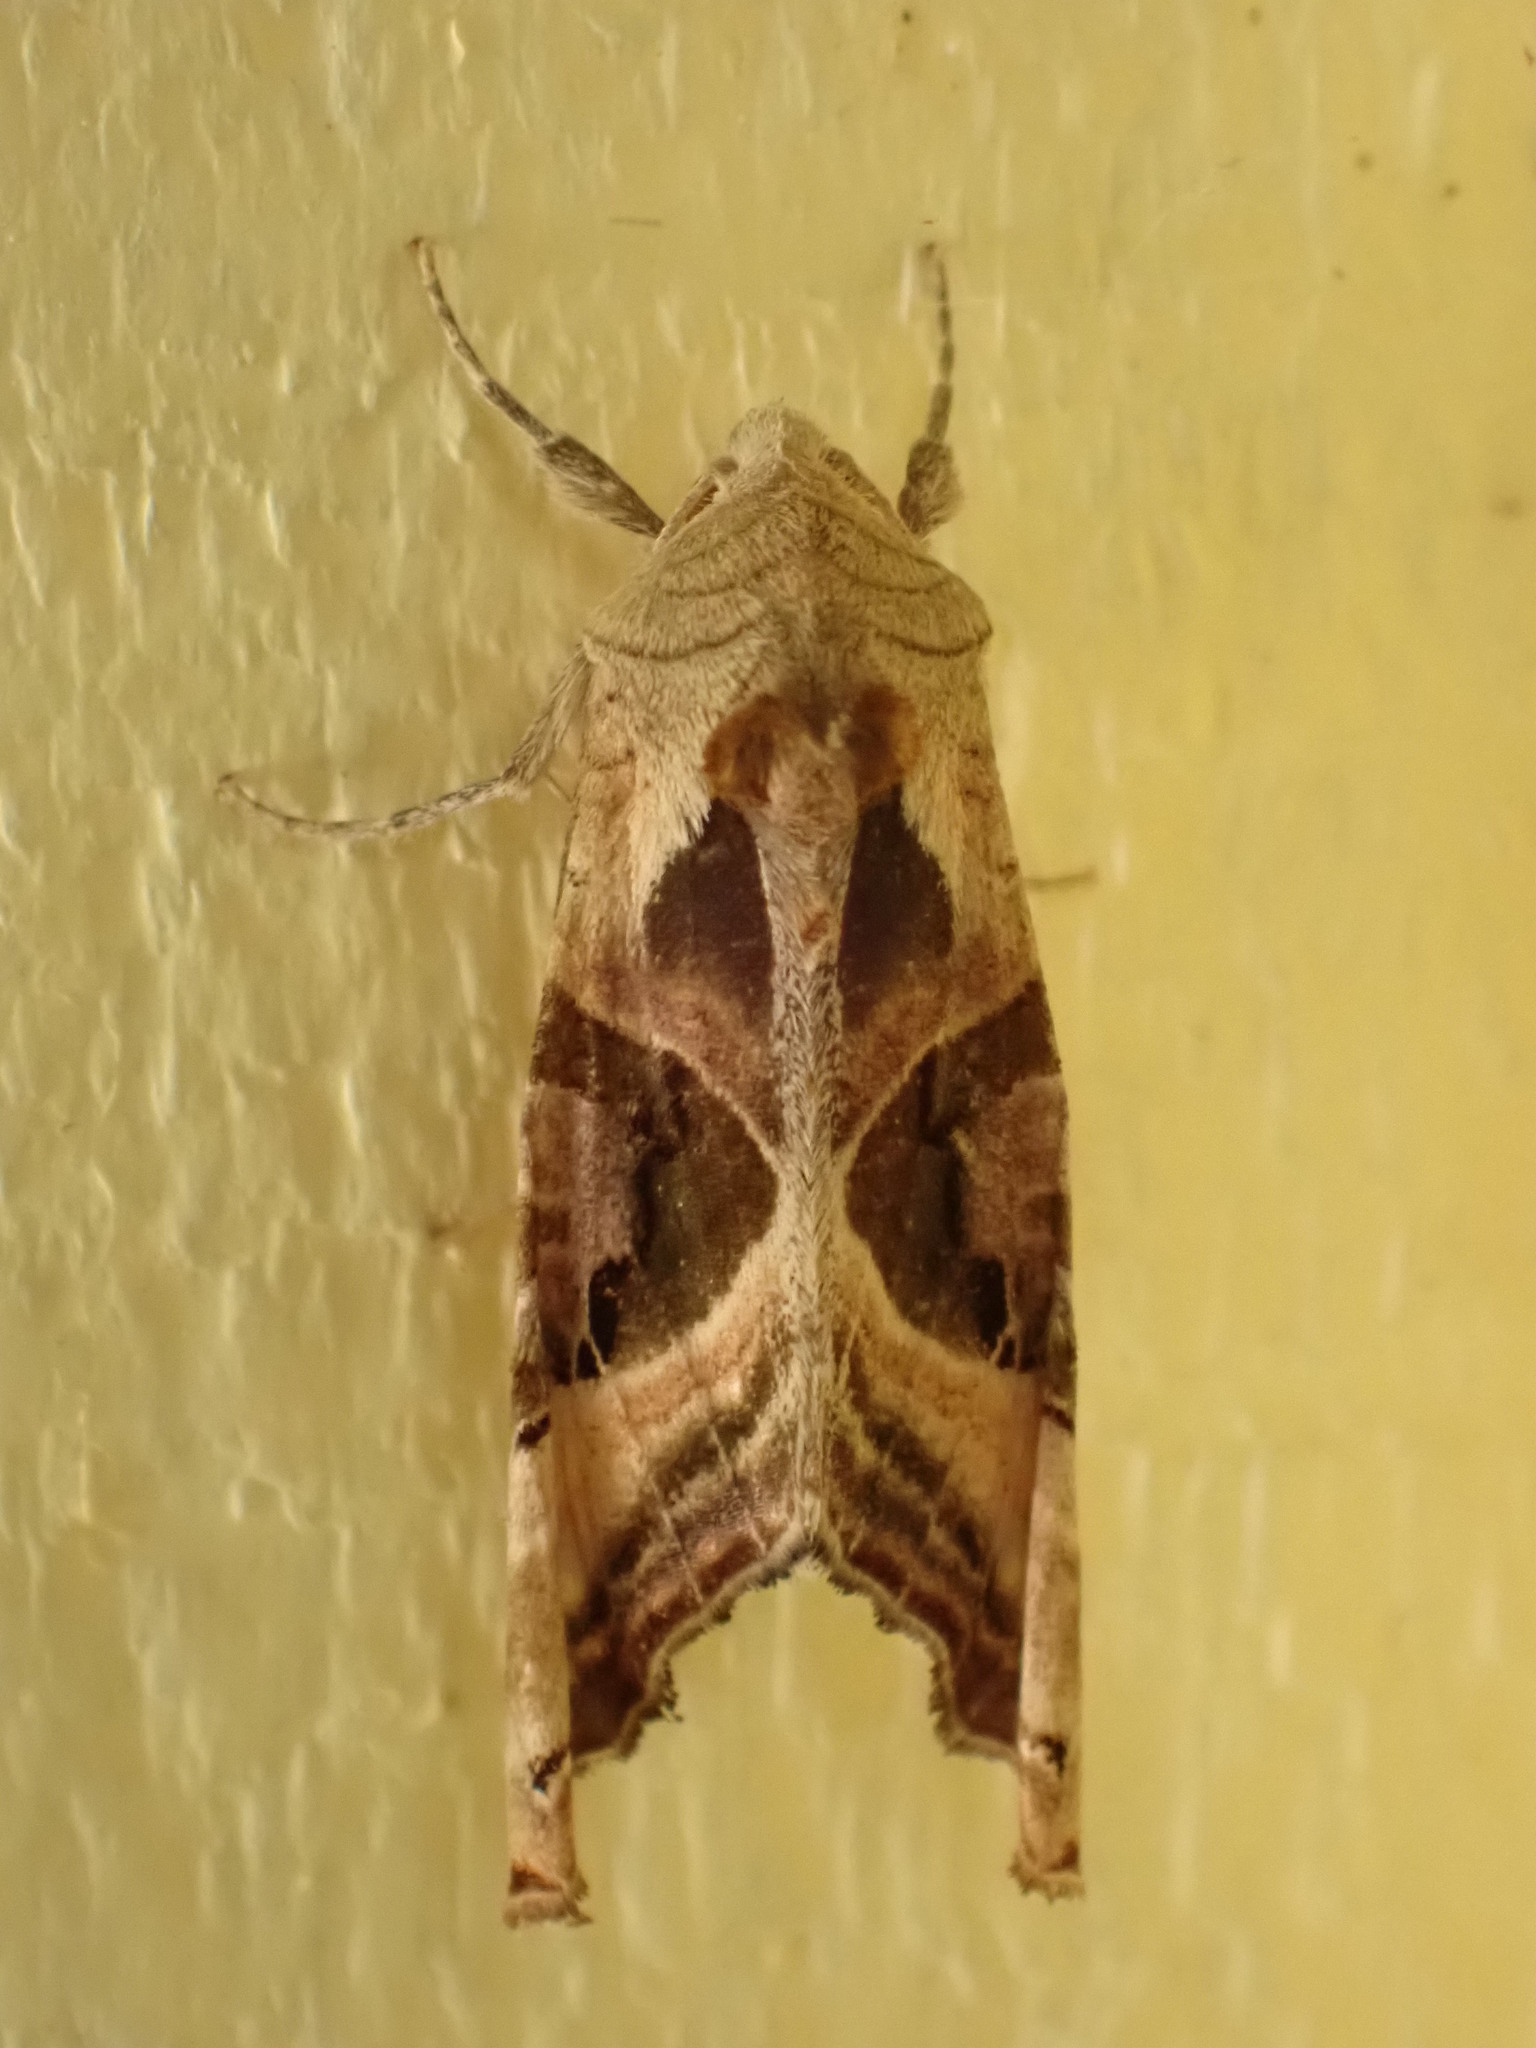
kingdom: Animalia
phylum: Arthropoda
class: Insecta
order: Lepidoptera
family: Noctuidae
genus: Phlogophora
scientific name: Phlogophora iris
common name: Olive angle shades
